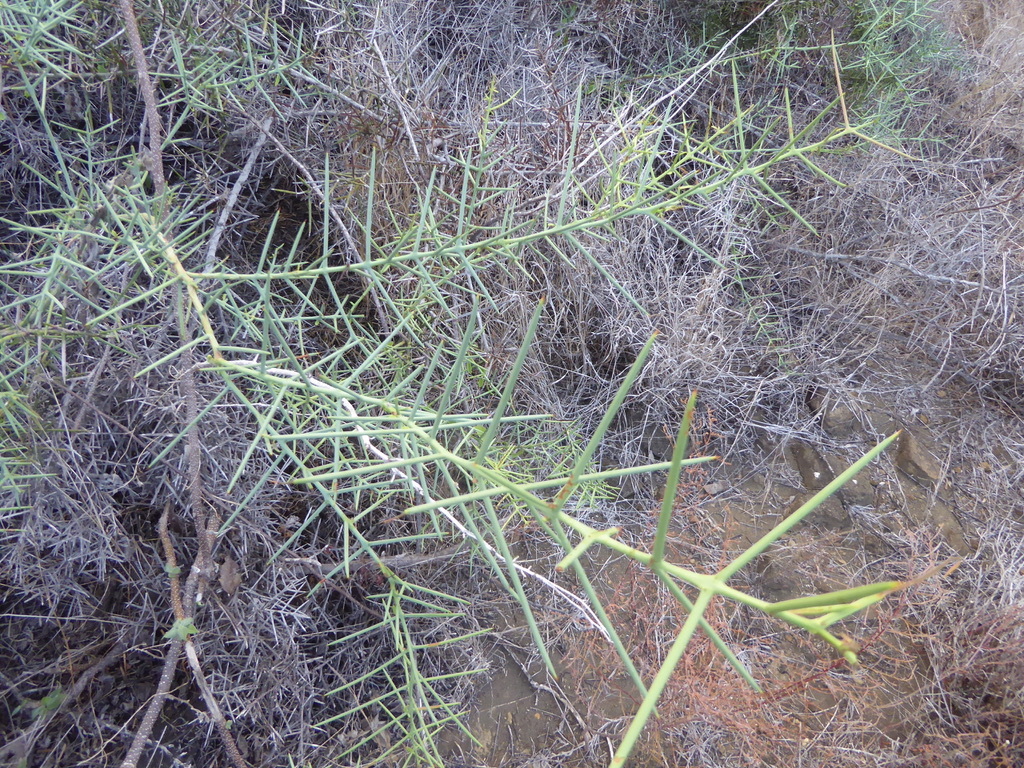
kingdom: Plantae
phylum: Tracheophyta
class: Magnoliopsida
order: Rosales
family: Rhamnaceae
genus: Scutia
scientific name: Scutia spicata
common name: Spiny bush
